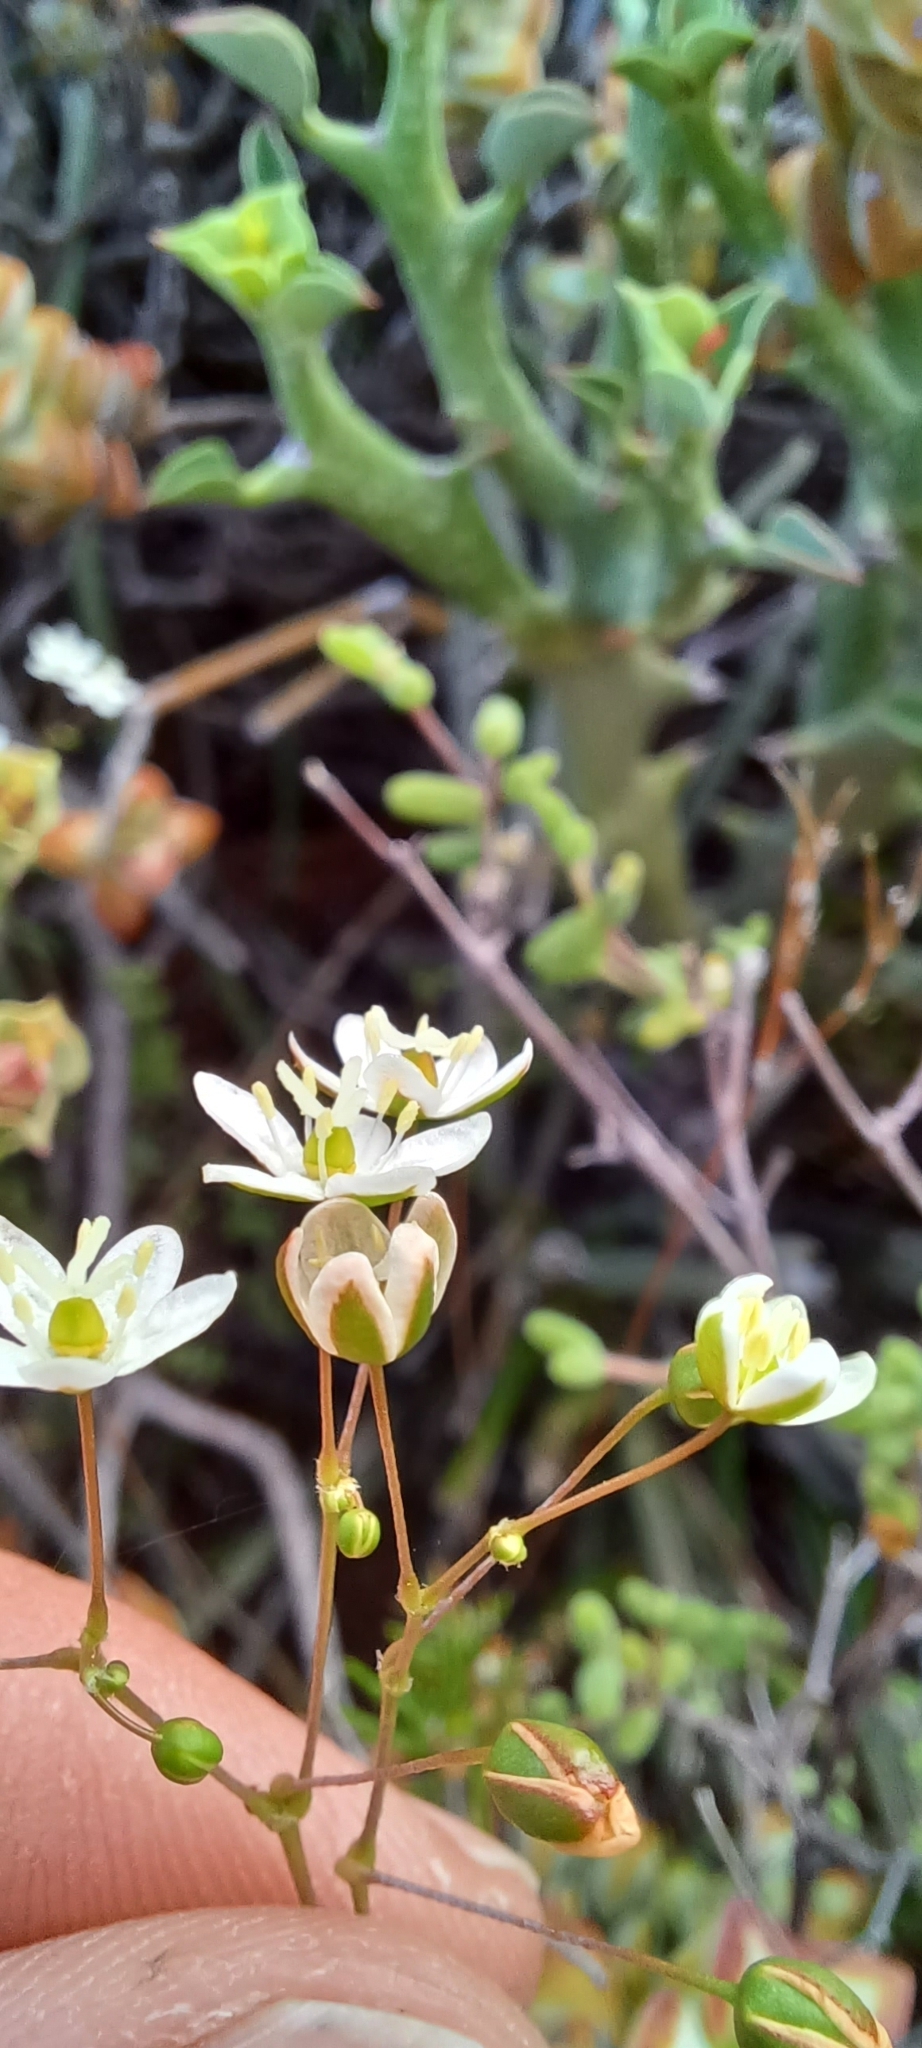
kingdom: Plantae
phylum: Tracheophyta
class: Magnoliopsida
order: Caryophyllales
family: Molluginaceae
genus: Pharnaceum
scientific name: Pharnaceum aurantium
